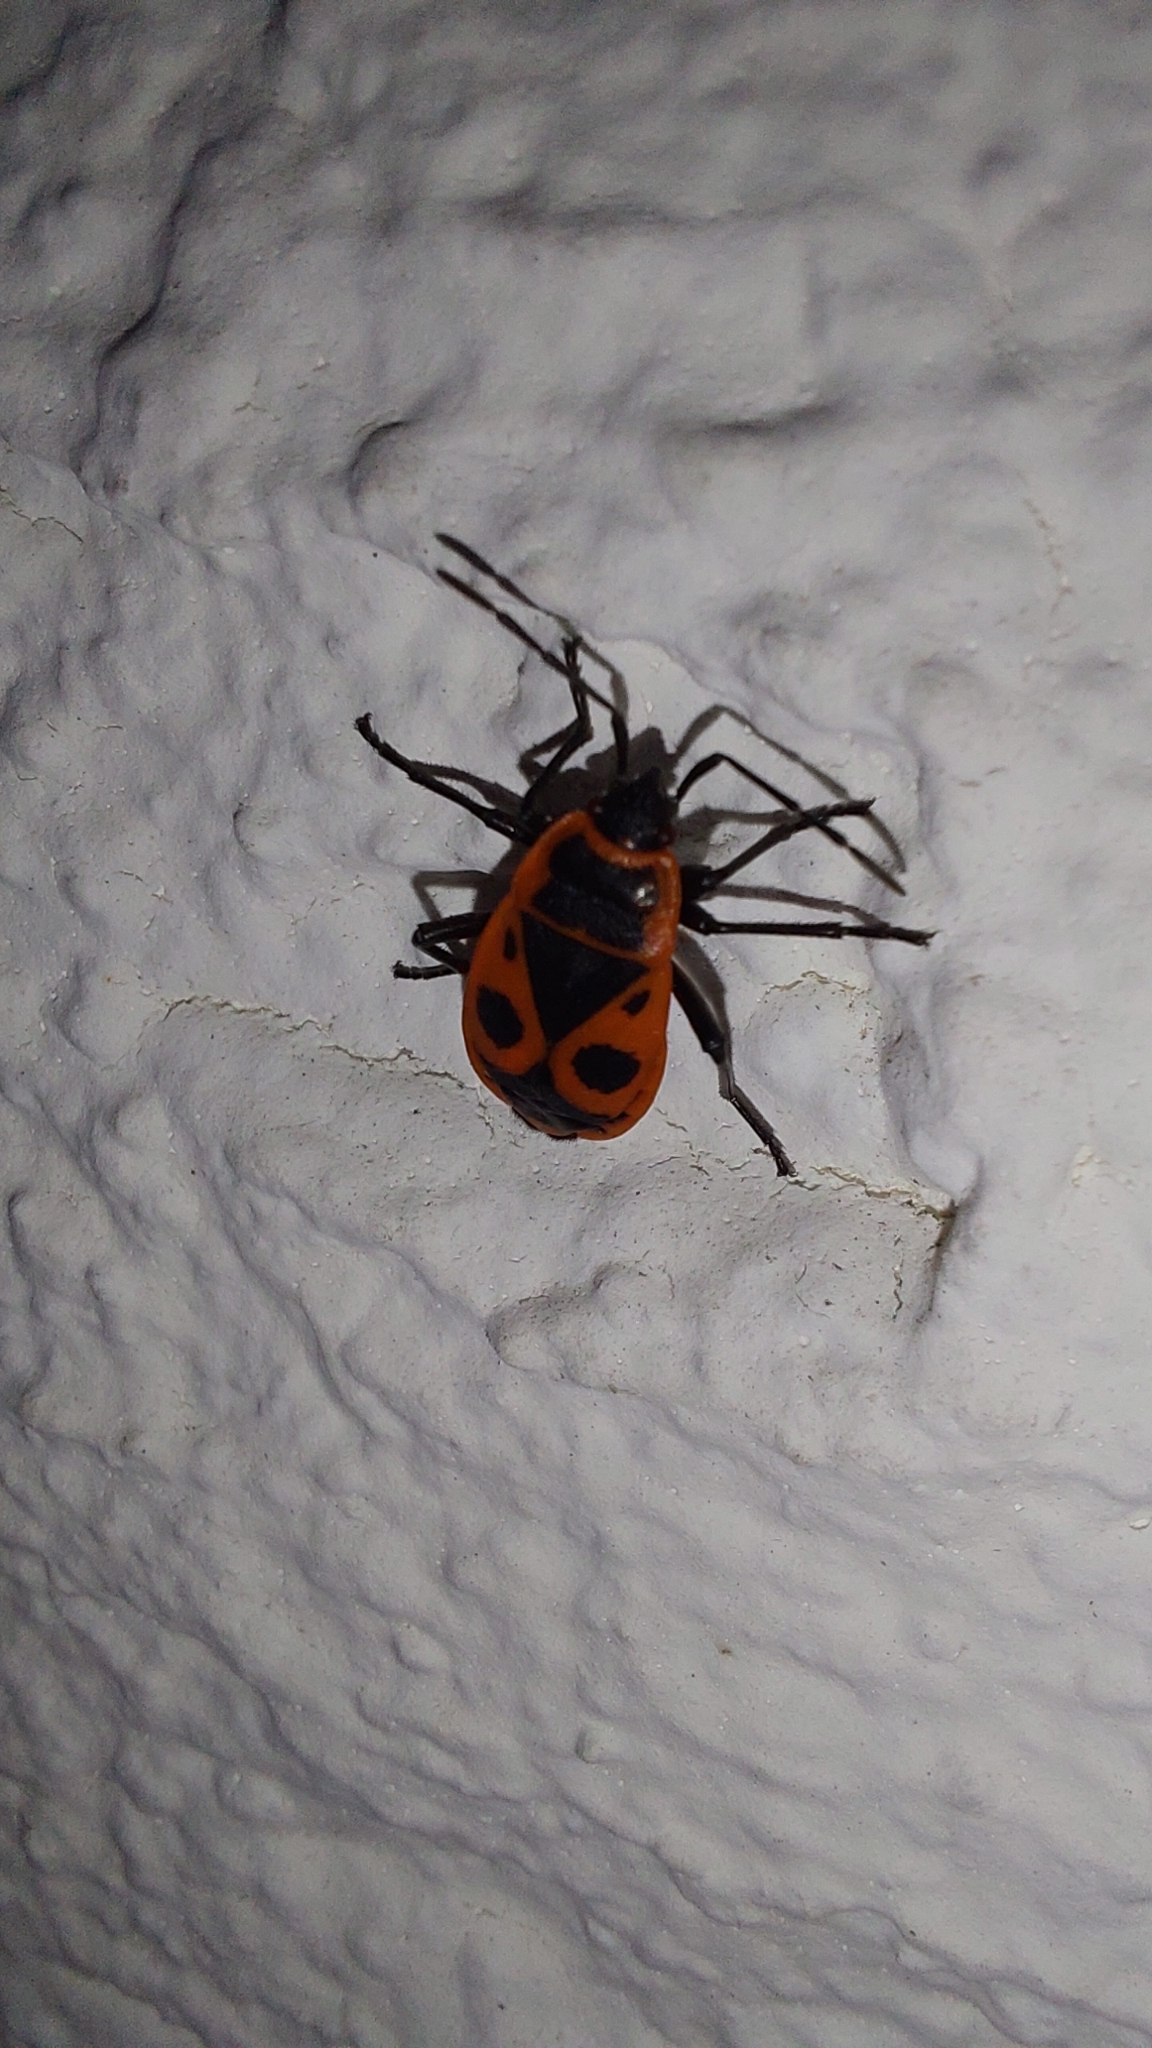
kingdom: Animalia
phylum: Arthropoda
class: Insecta
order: Hemiptera
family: Pyrrhocoridae
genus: Pyrrhocoris
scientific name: Pyrrhocoris apterus
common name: Firebug
